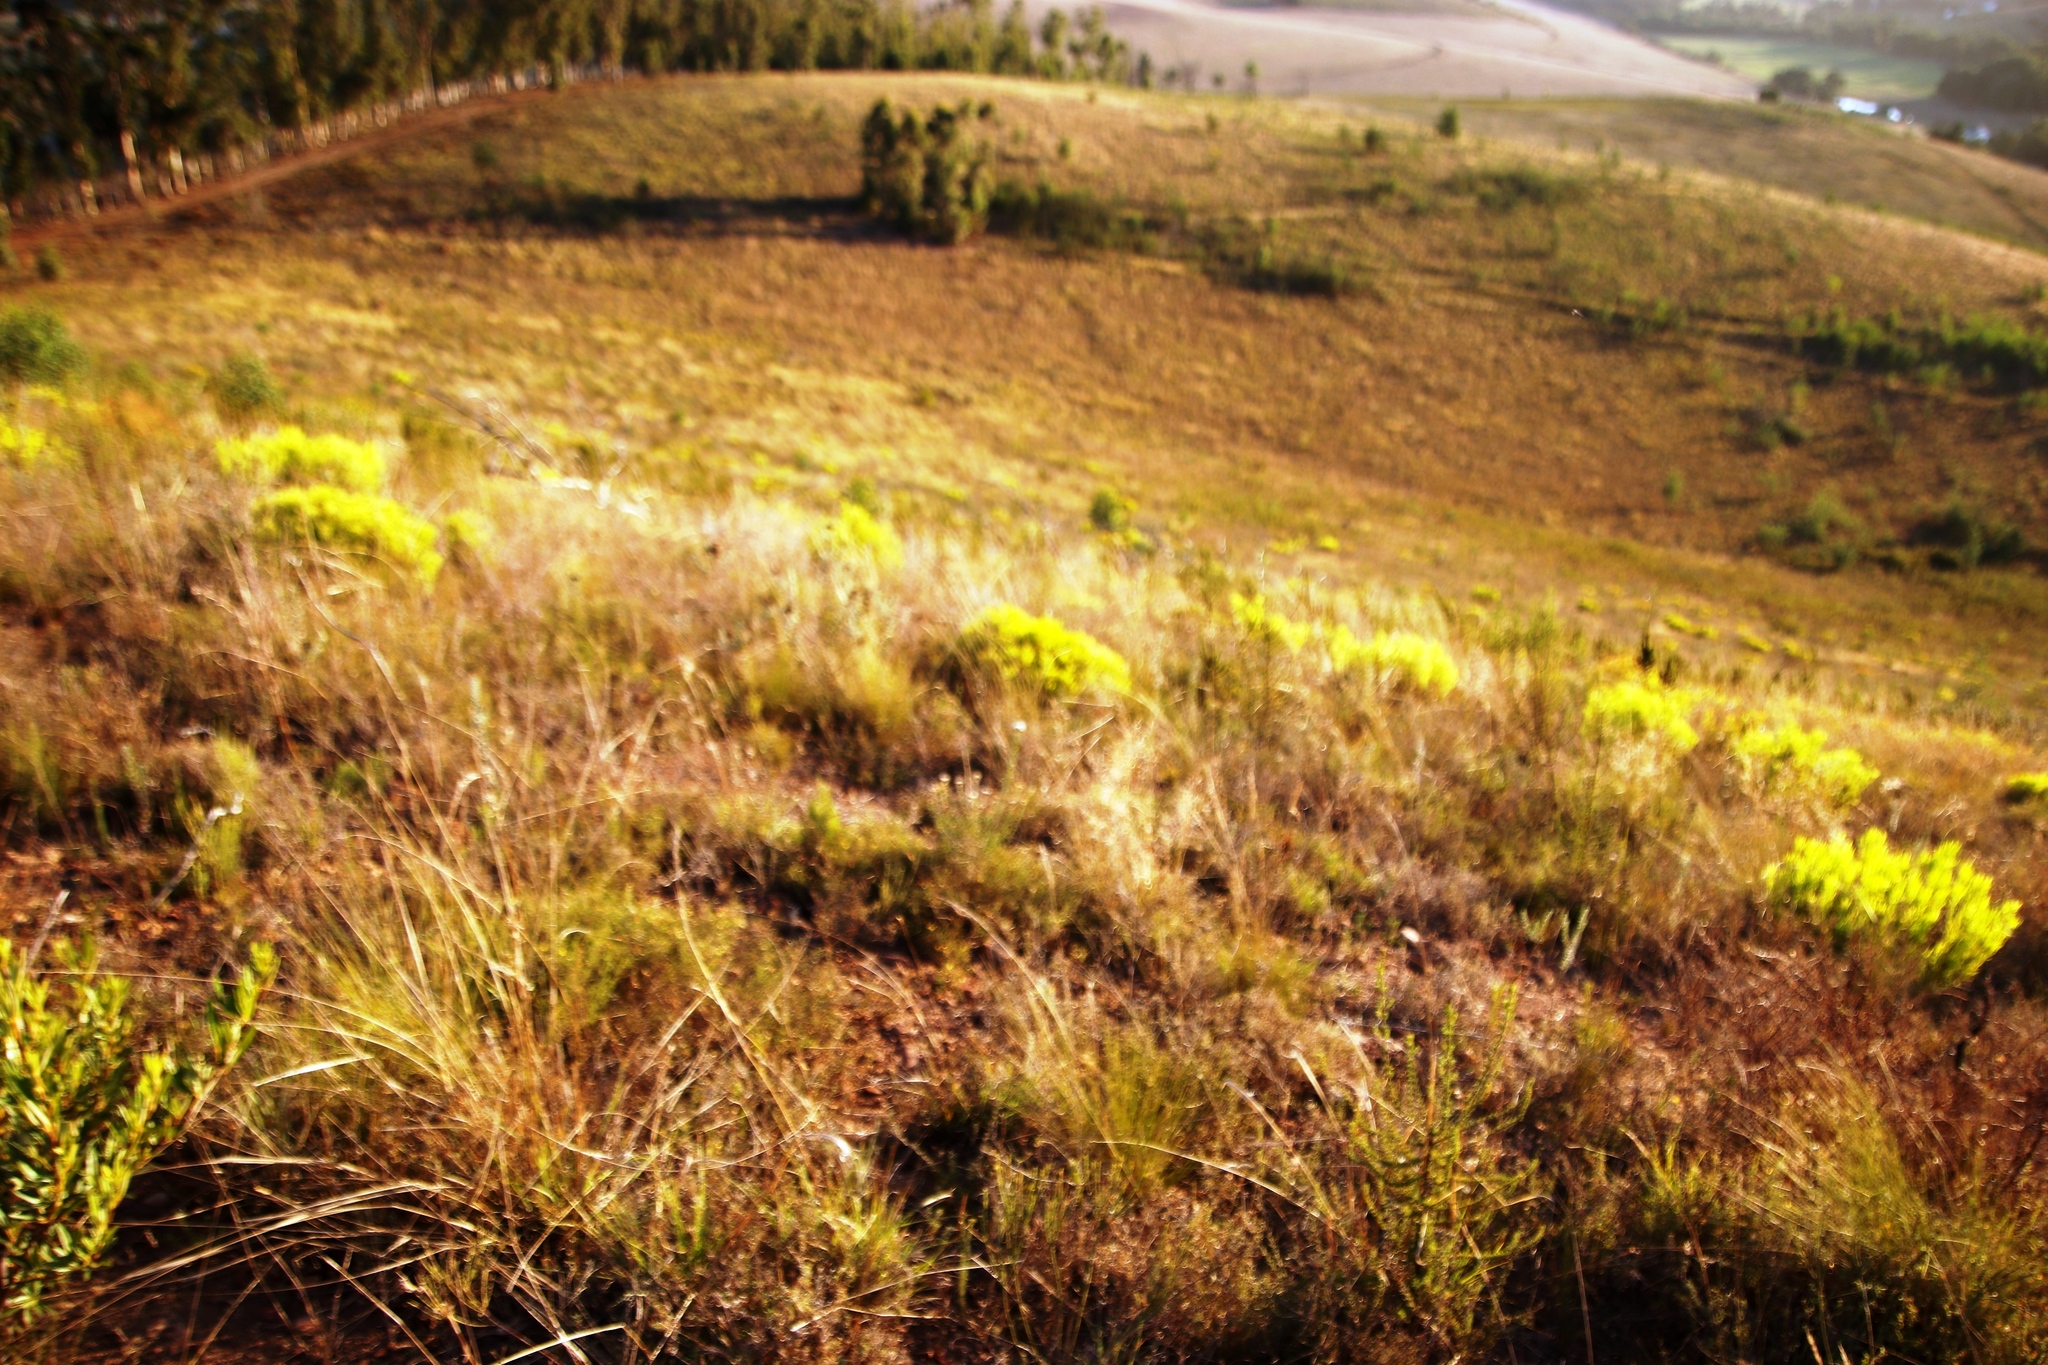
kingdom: Plantae
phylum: Tracheophyta
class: Magnoliopsida
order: Proteales
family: Proteaceae
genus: Leucadendron
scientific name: Leucadendron salignum
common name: Common sunshine conebush
